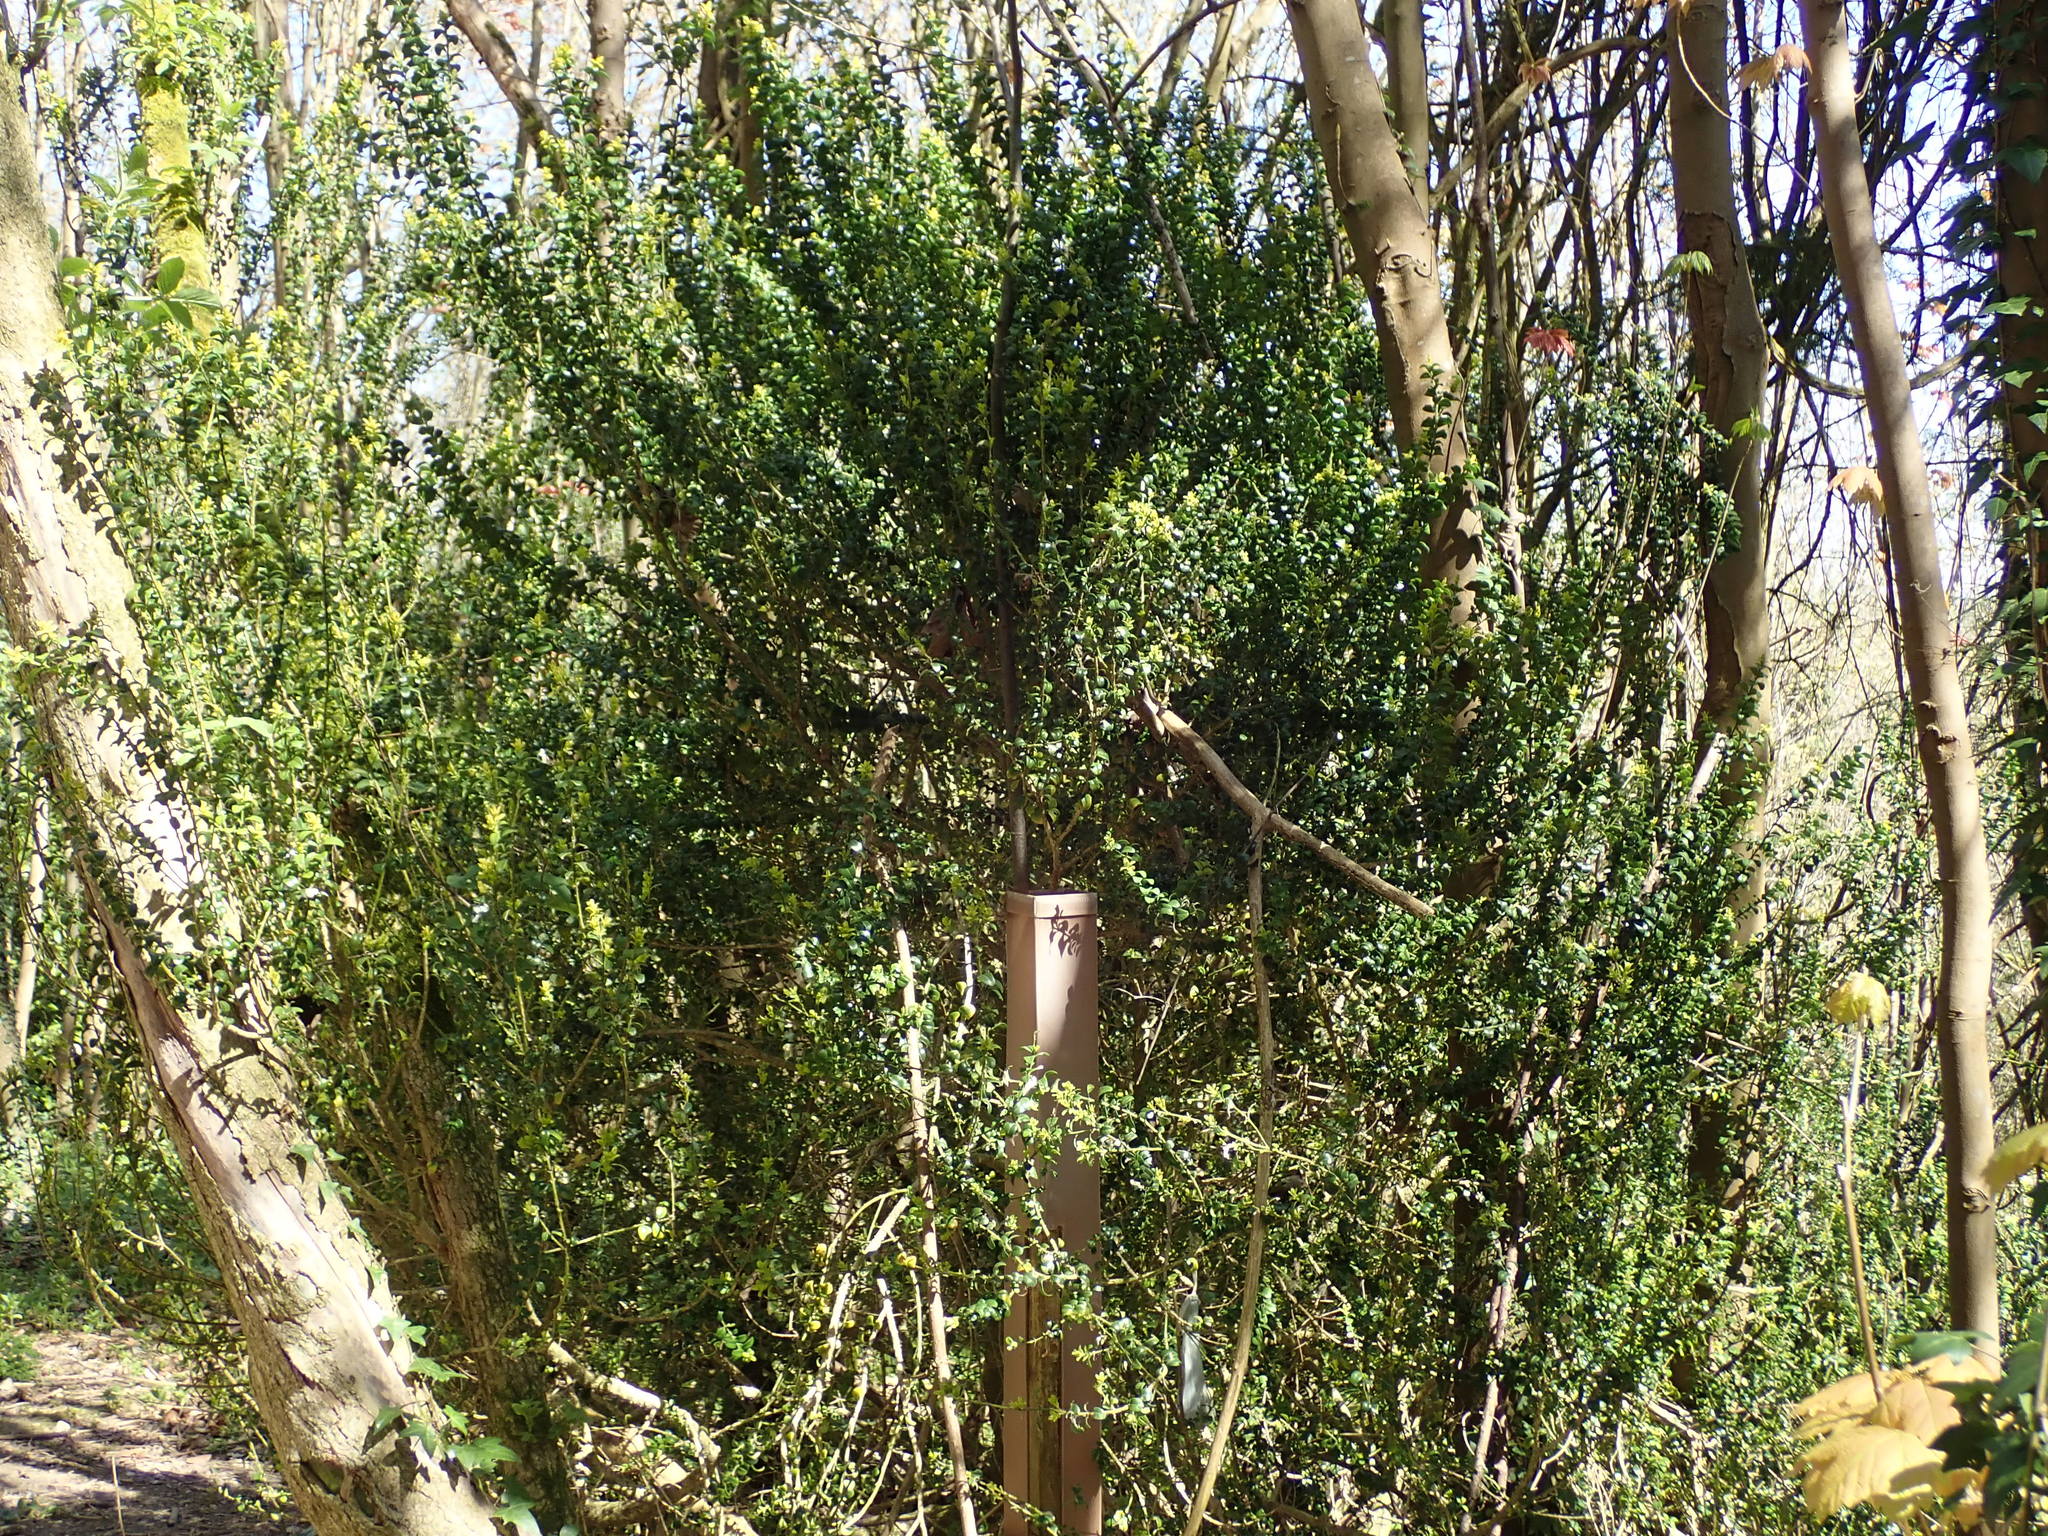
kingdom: Plantae
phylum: Tracheophyta
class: Magnoliopsida
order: Buxales
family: Buxaceae
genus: Buxus
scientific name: Buxus sempervirens
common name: Box
